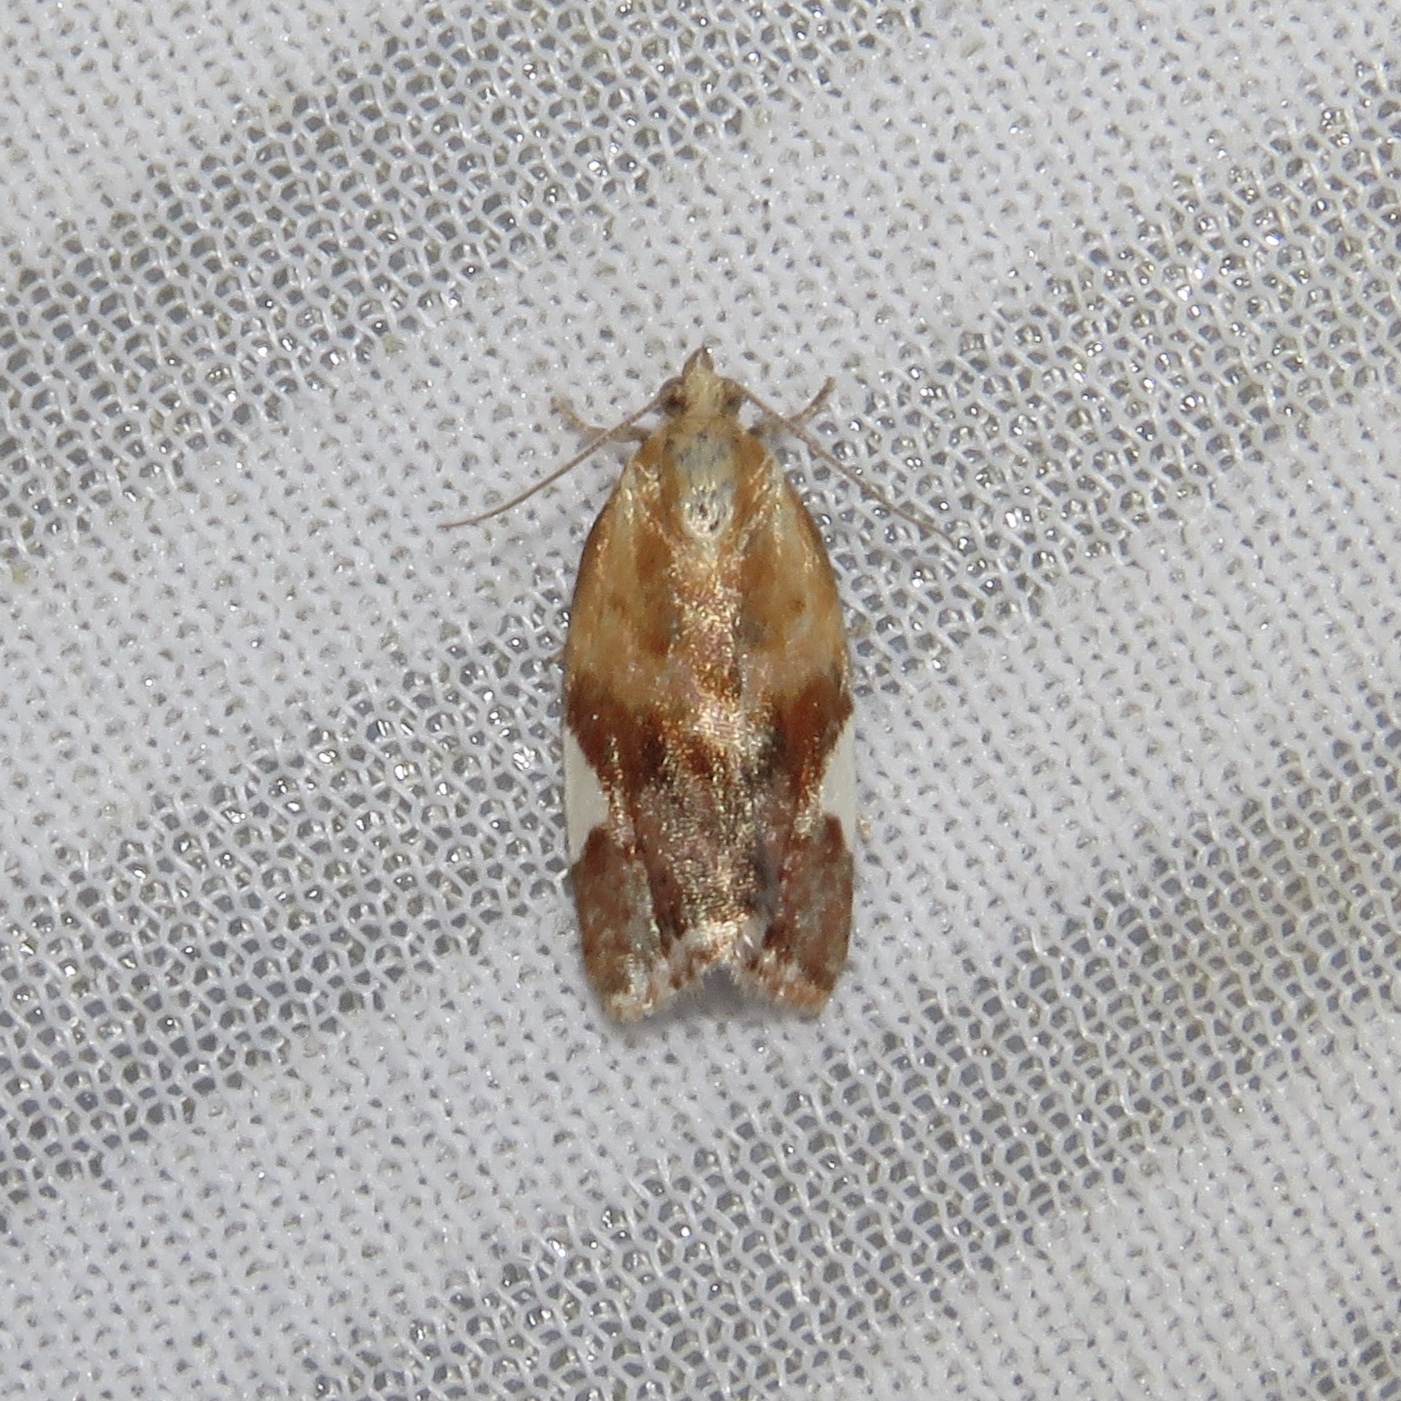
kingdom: Animalia
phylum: Arthropoda
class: Insecta
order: Lepidoptera
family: Tortricidae
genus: Clepsis
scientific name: Clepsis persicana
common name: White triangle tortrix
